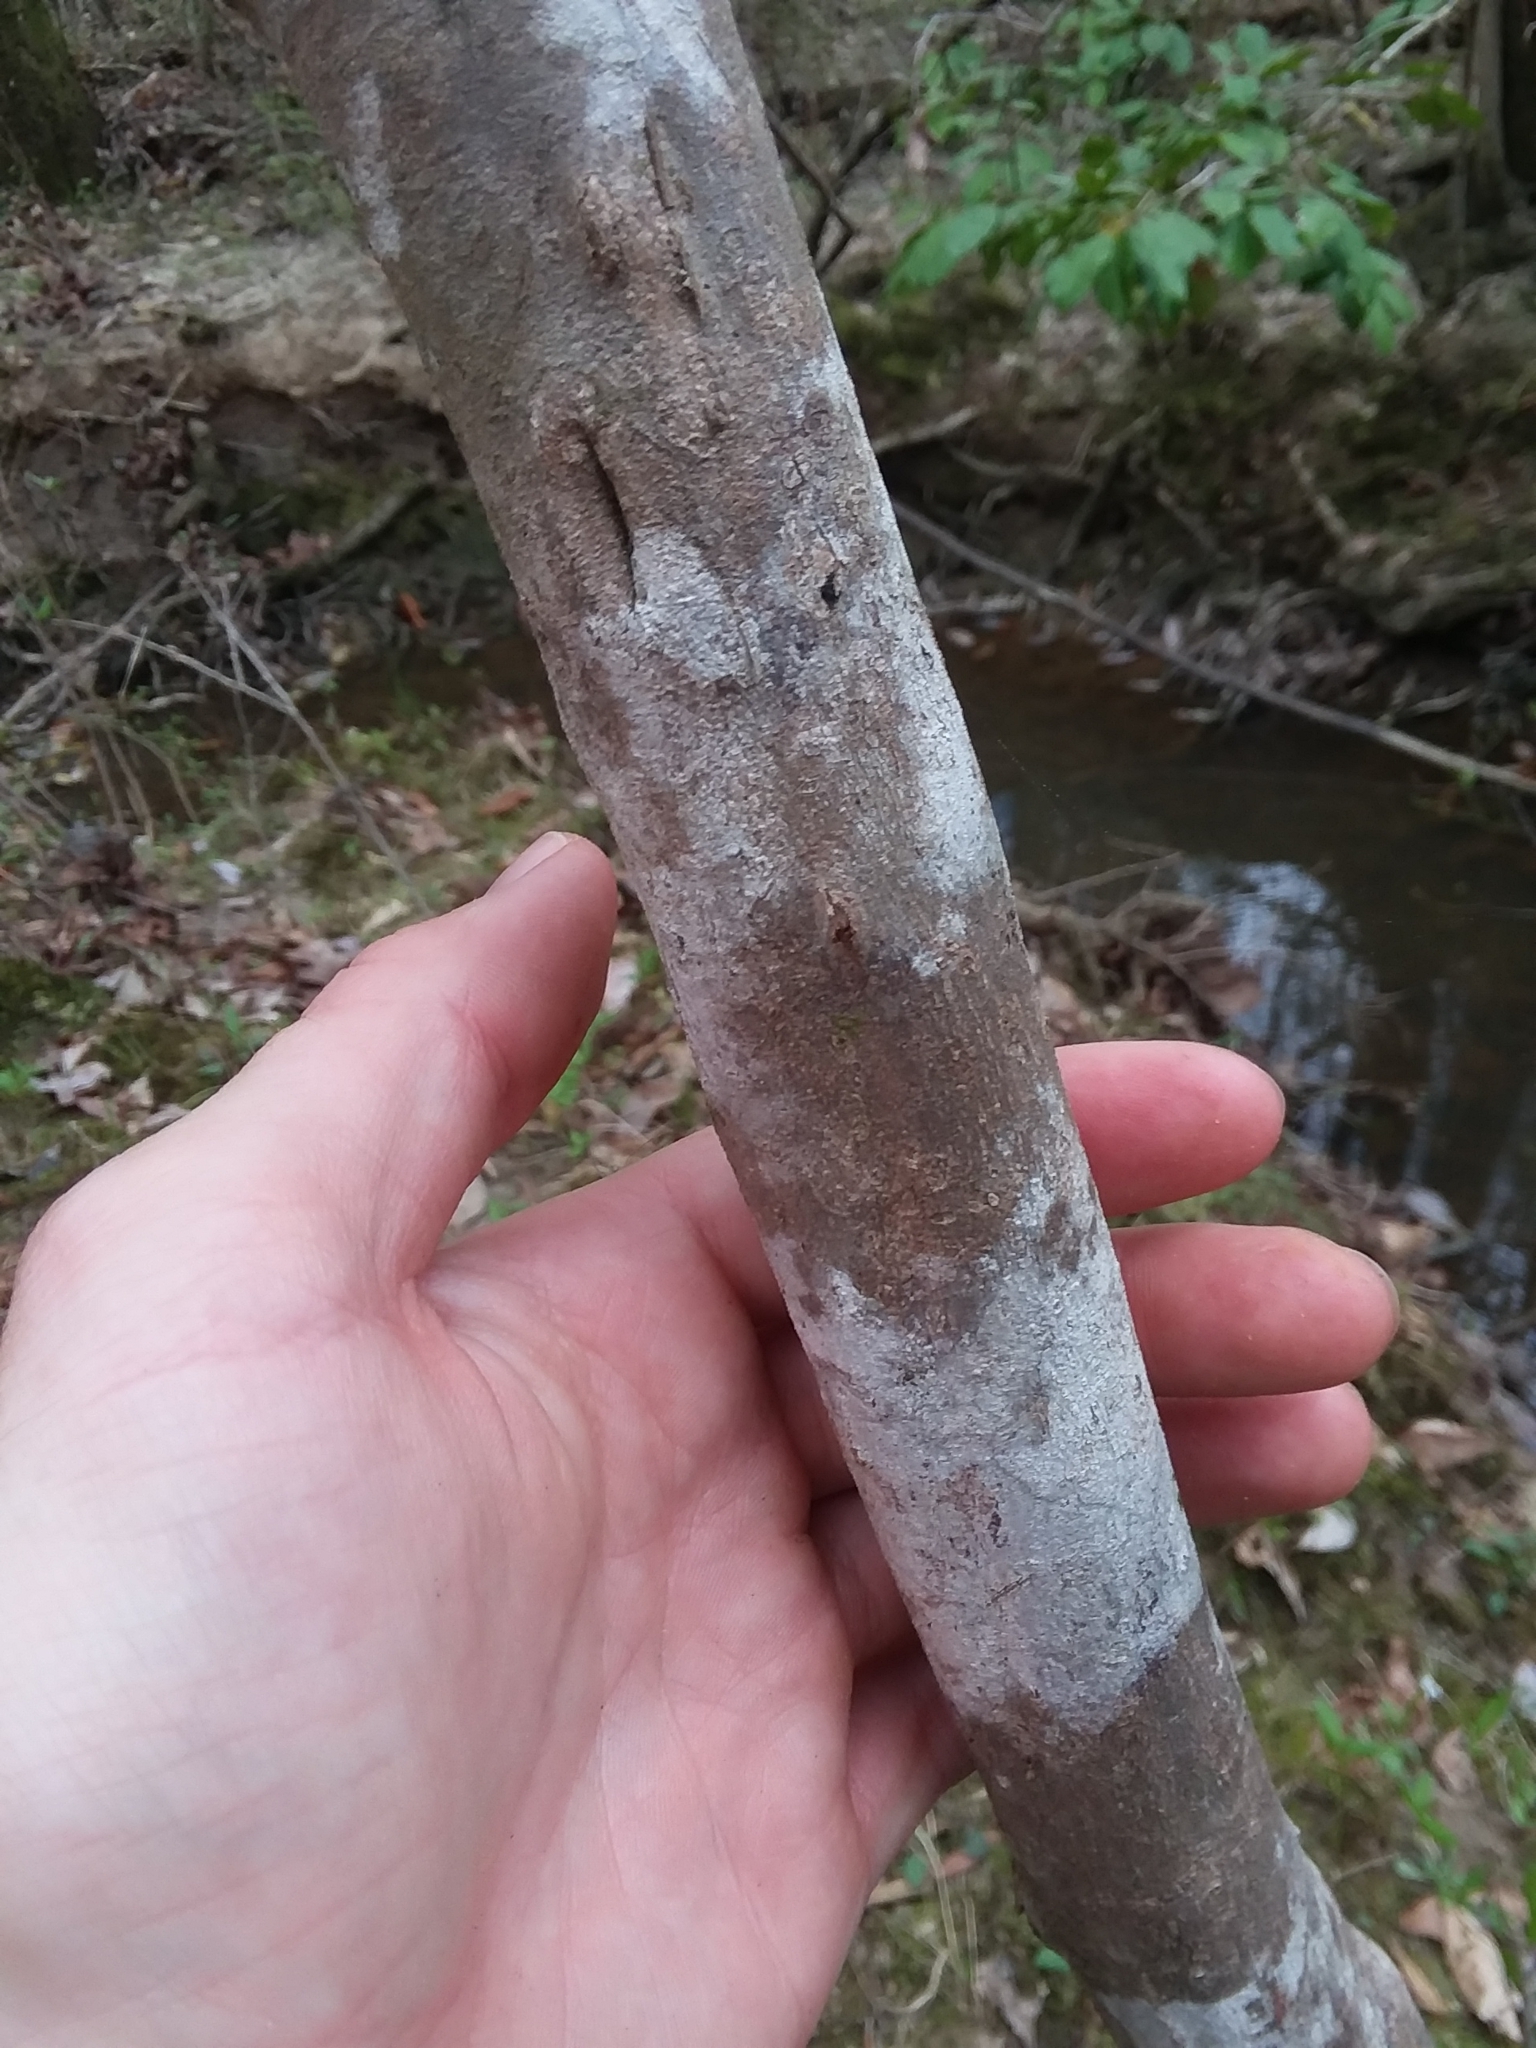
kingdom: Plantae
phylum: Tracheophyta
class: Magnoliopsida
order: Ericales
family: Ericaceae
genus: Rhododendron
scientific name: Rhododendron canescens
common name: Mountain azalea
